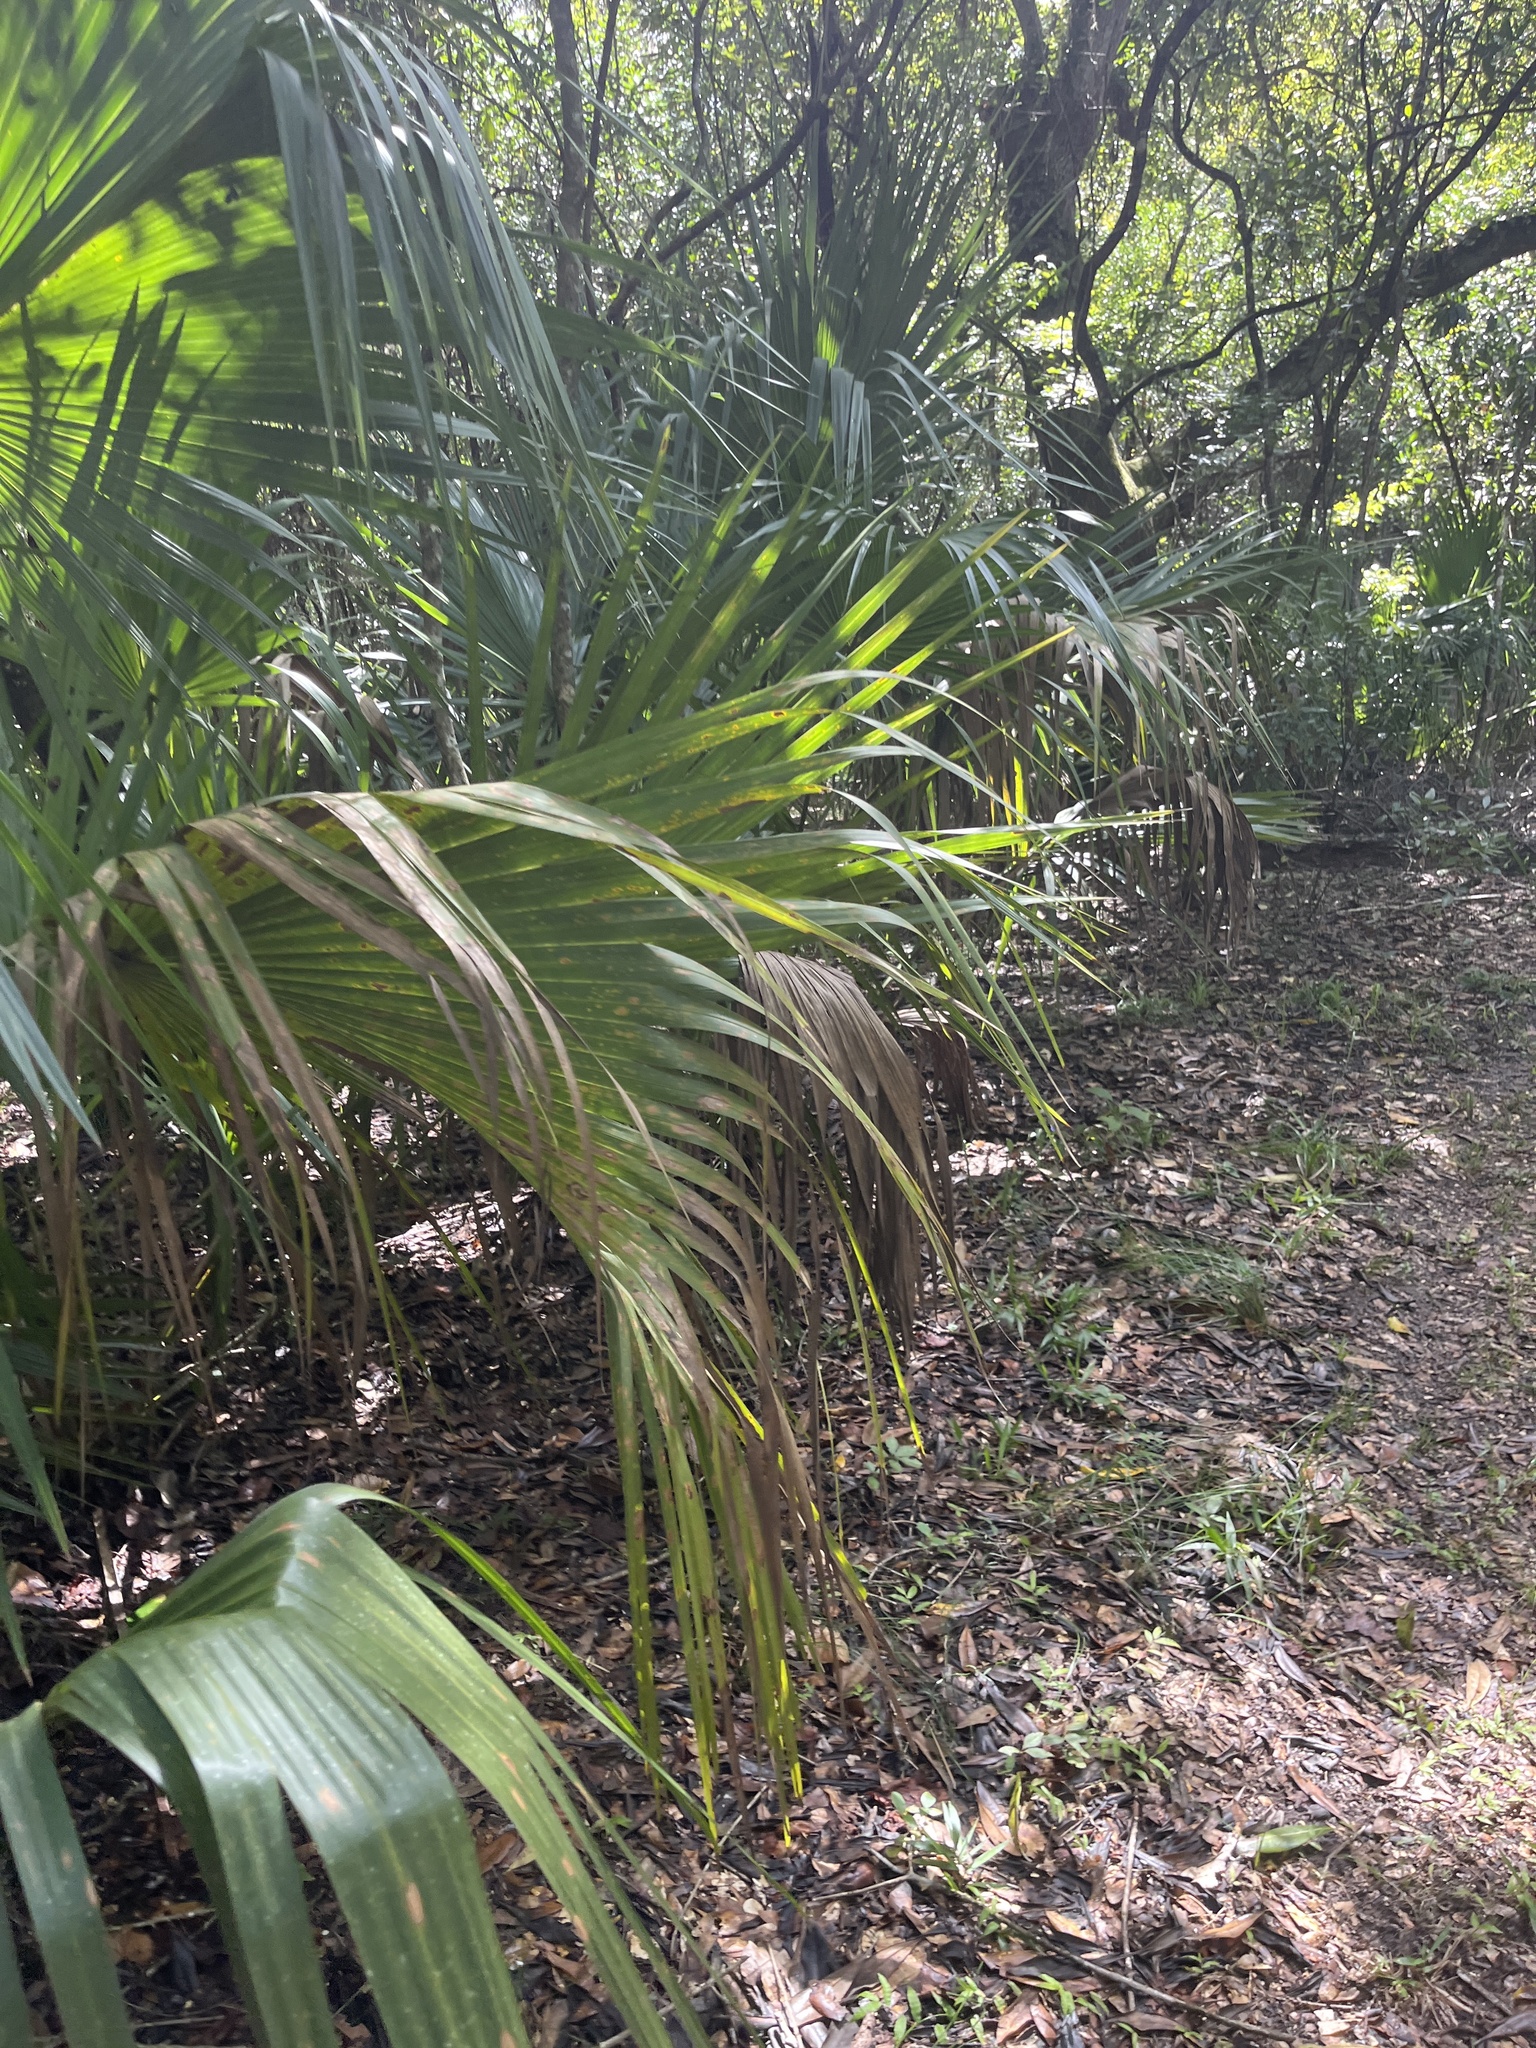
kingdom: Plantae
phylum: Tracheophyta
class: Liliopsida
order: Arecales
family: Arecaceae
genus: Sabal
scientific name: Sabal palmetto
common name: Blue palmetto
